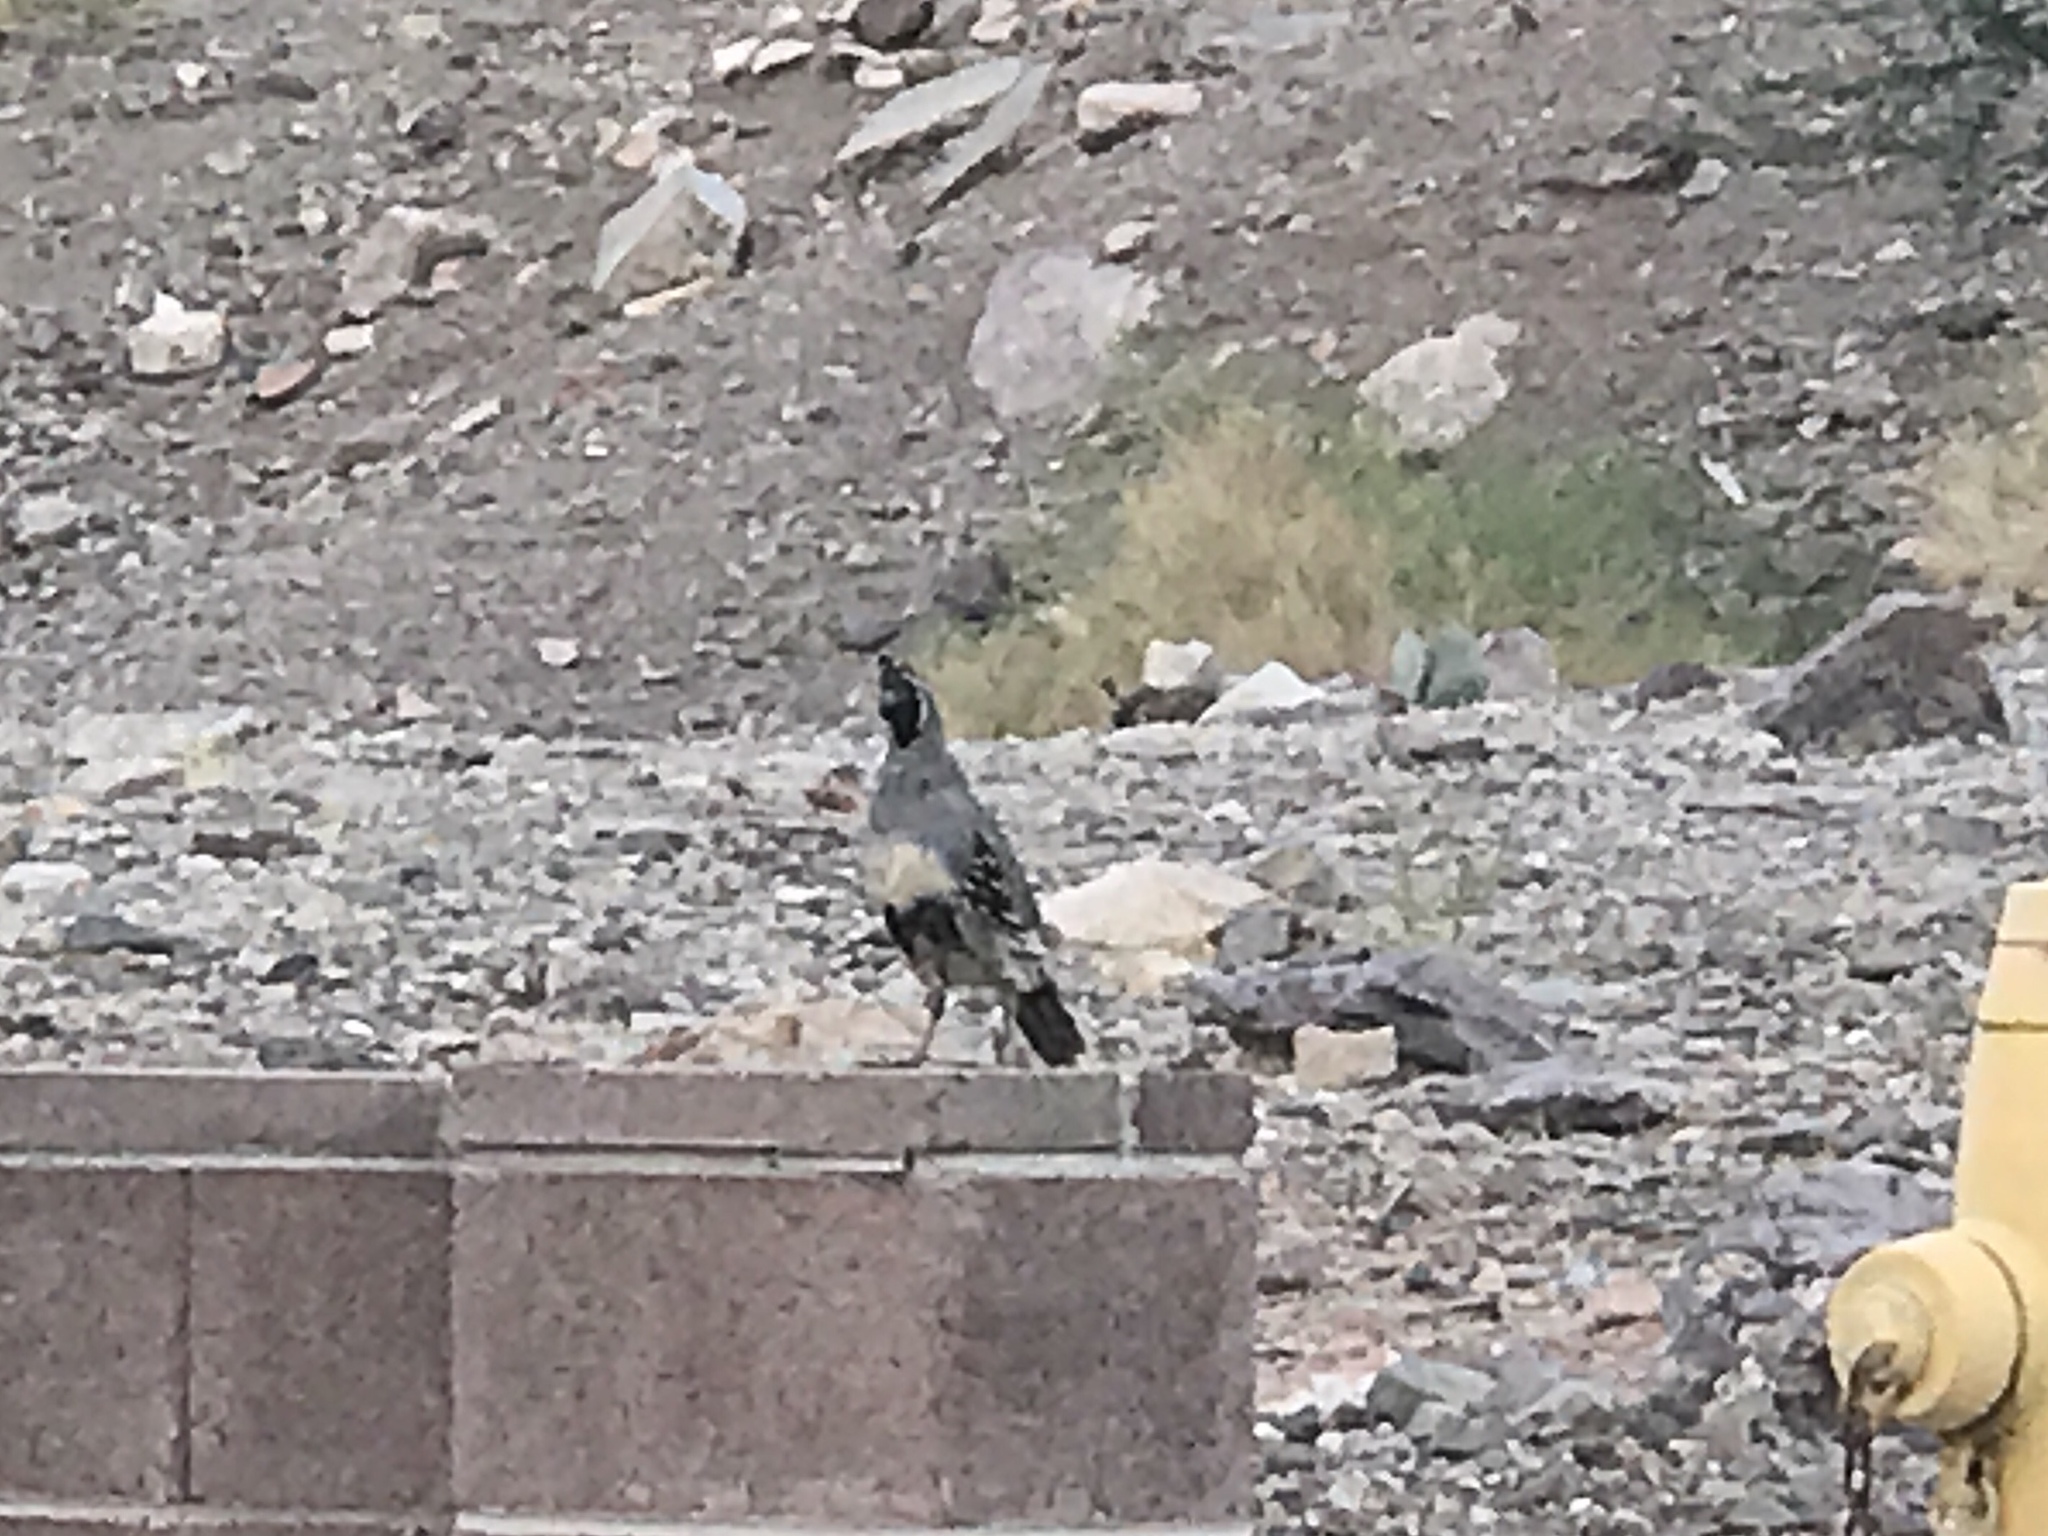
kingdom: Animalia
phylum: Chordata
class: Aves
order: Galliformes
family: Odontophoridae
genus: Callipepla
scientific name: Callipepla gambelii
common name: Gambel's quail
